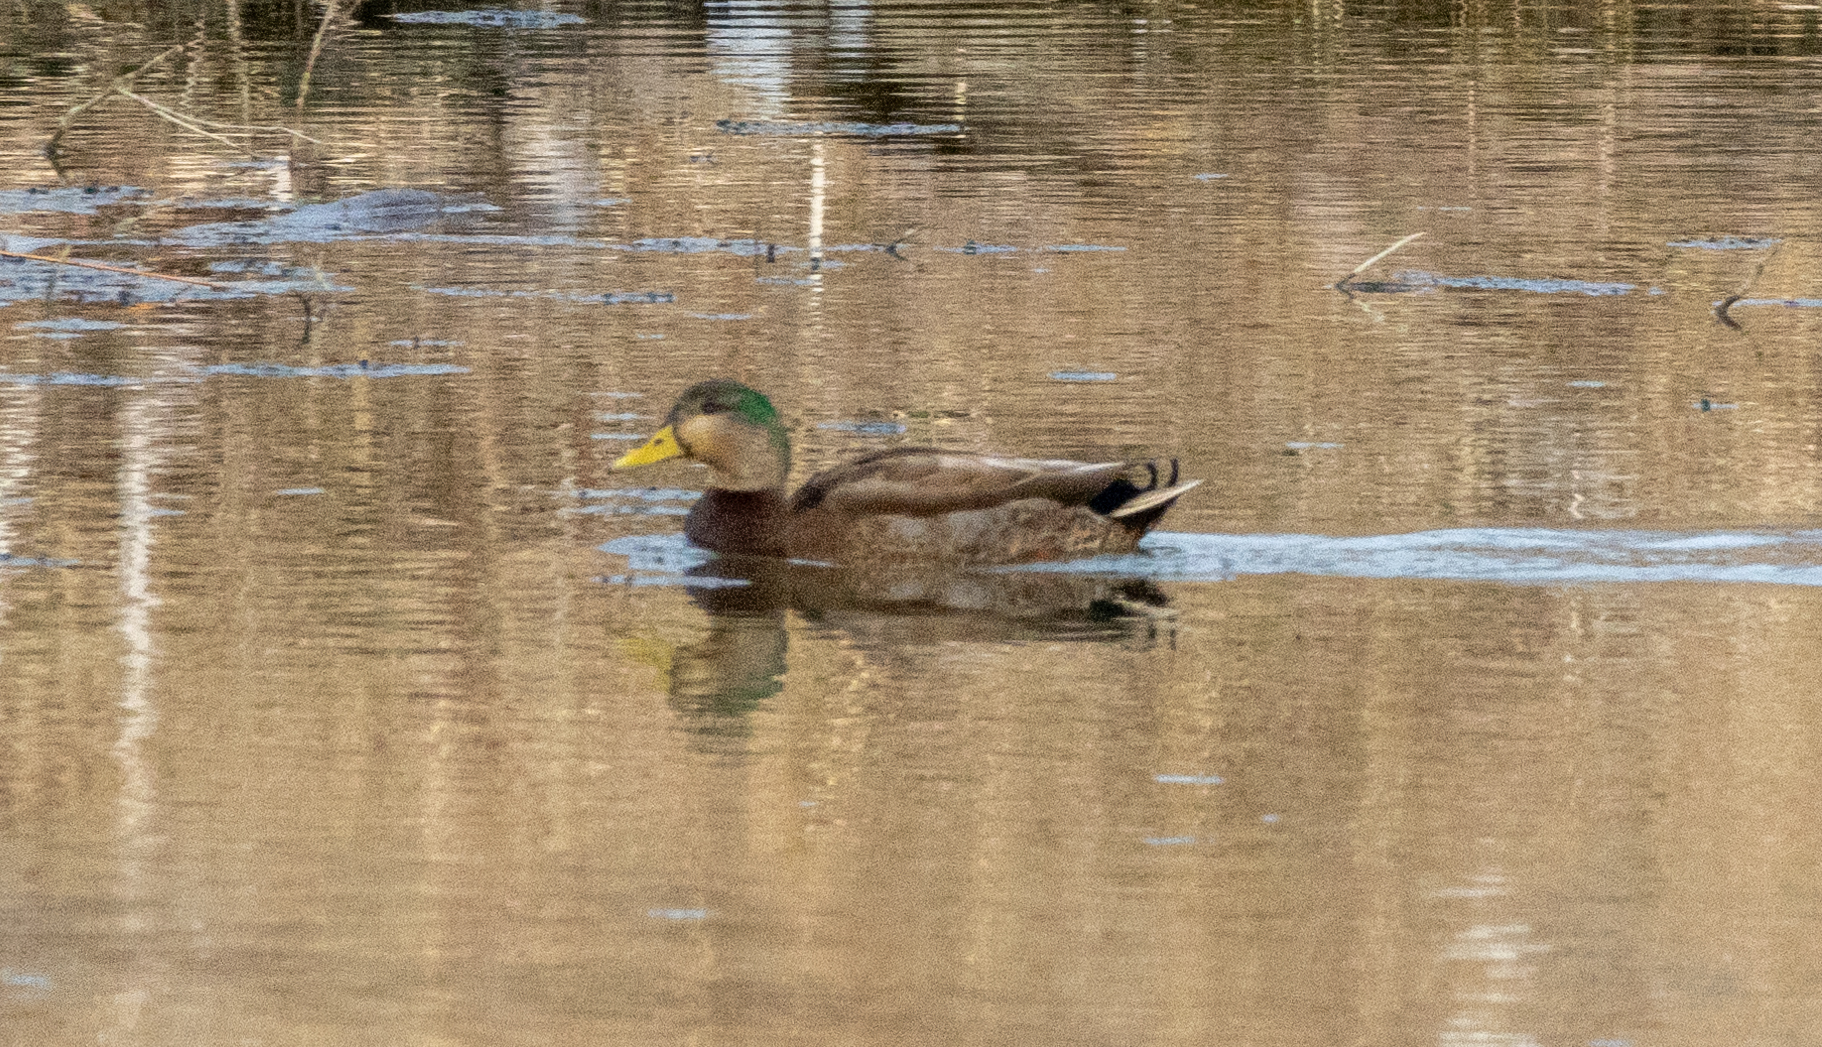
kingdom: Animalia
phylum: Chordata
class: Aves
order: Anseriformes
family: Anatidae
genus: Anas
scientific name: Anas
